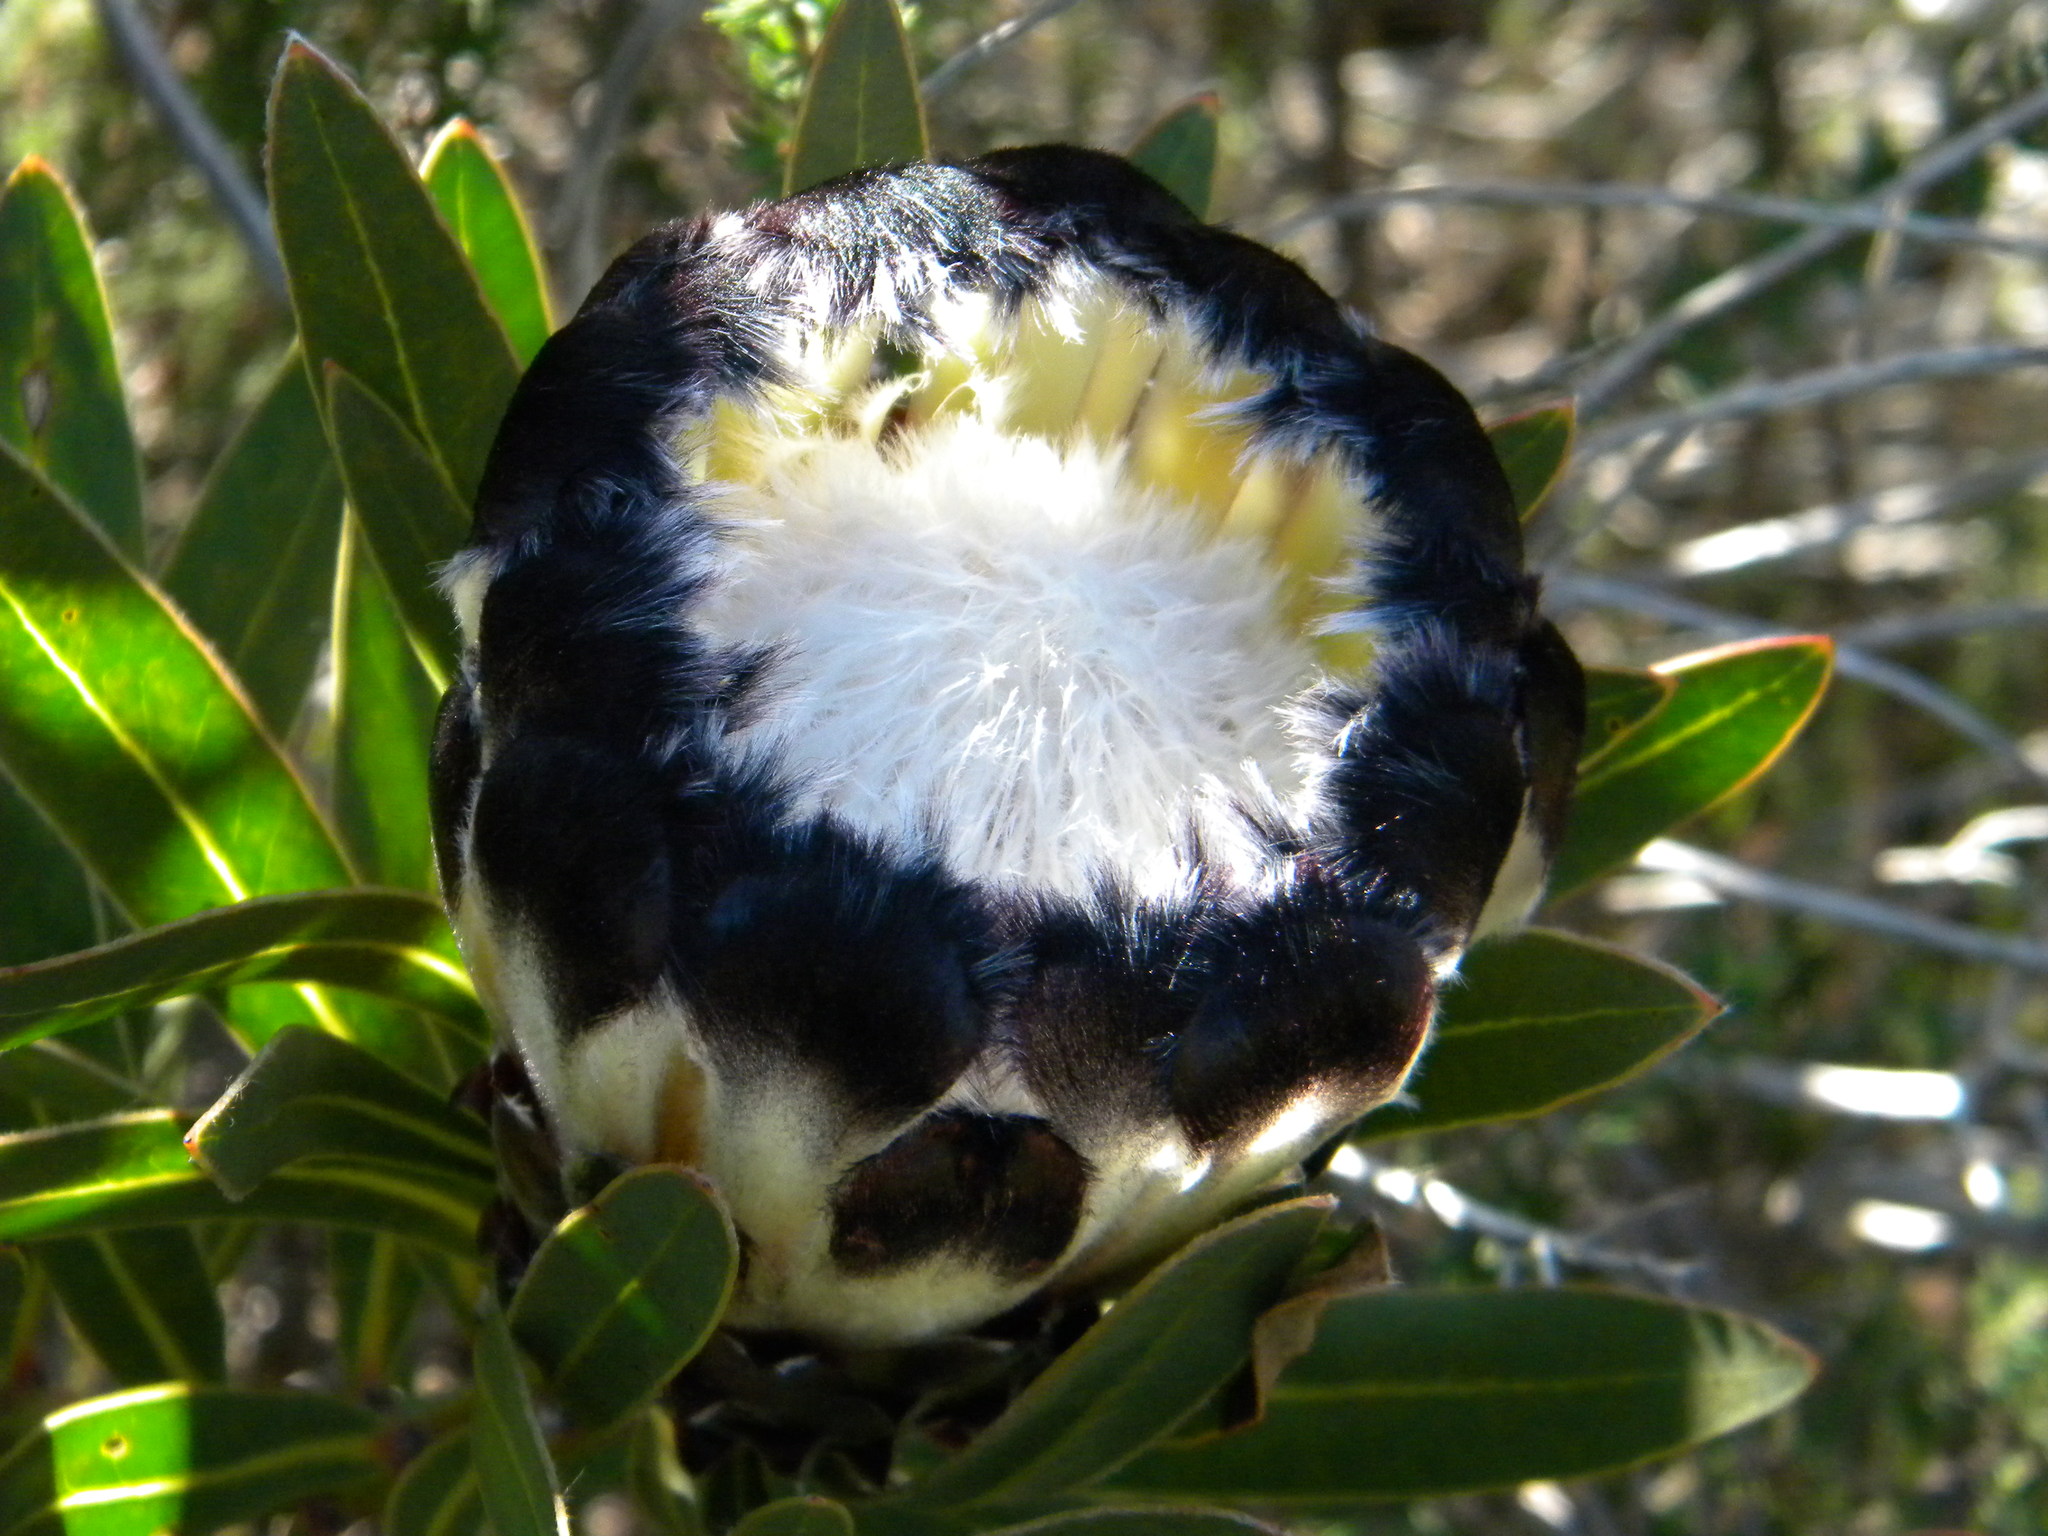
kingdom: Plantae
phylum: Tracheophyta
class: Magnoliopsida
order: Proteales
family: Proteaceae
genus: Protea
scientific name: Protea lepidocarpodendron
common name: Black-bearded protea
